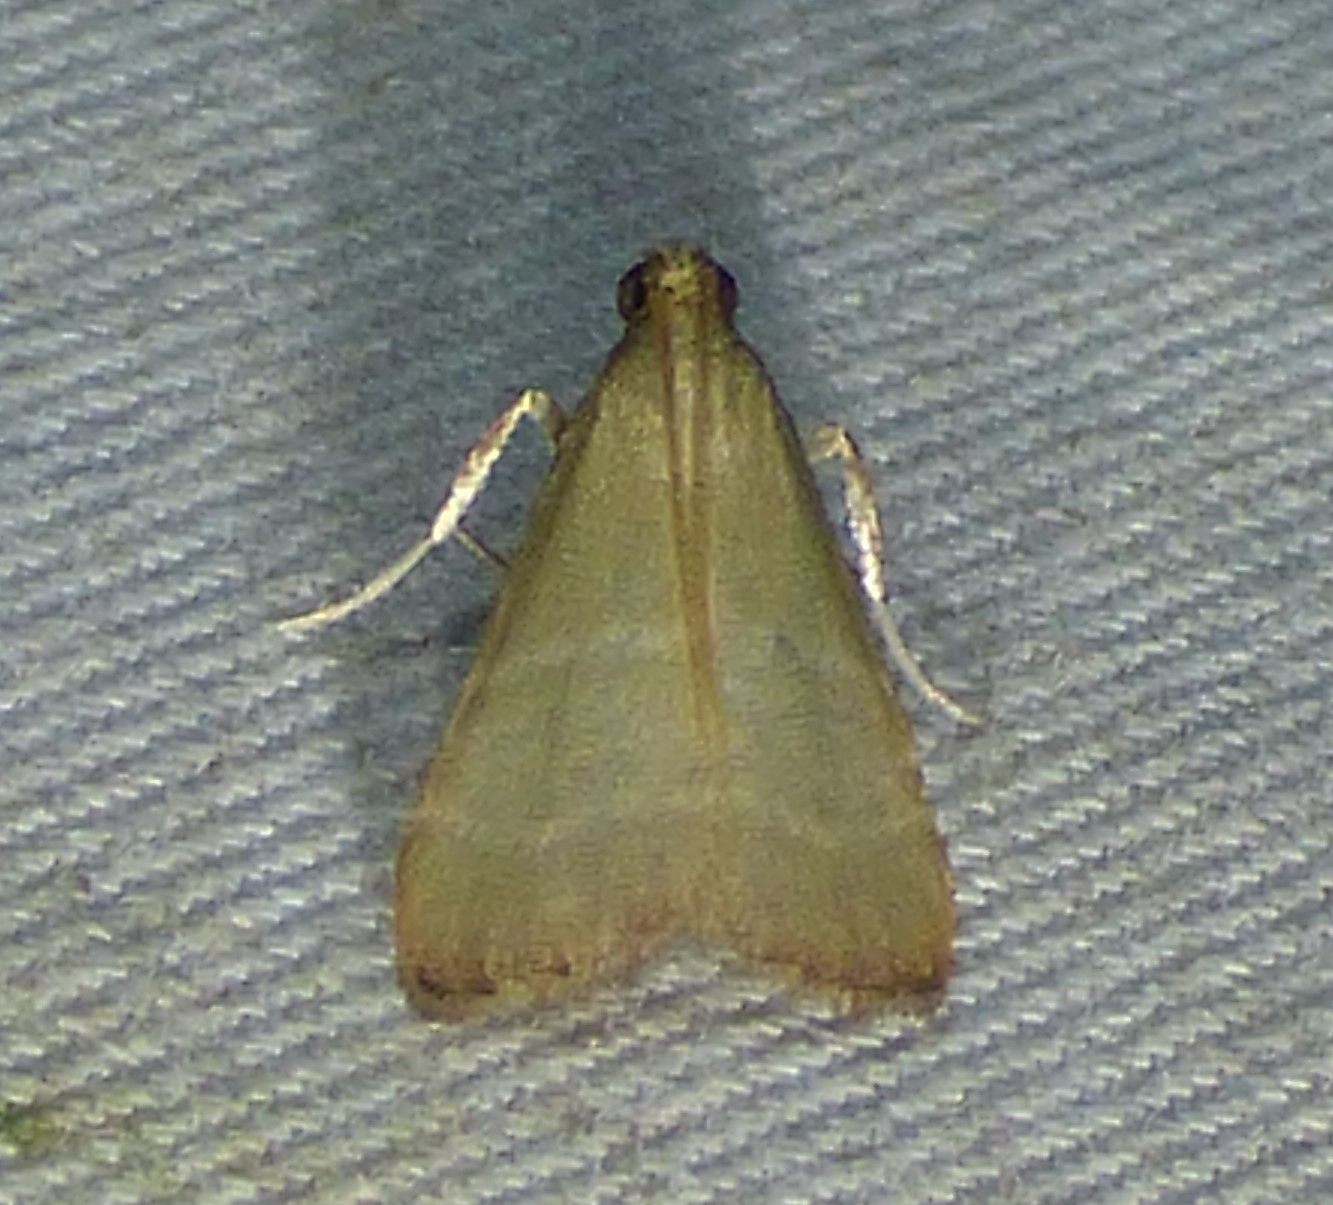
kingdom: Animalia
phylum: Arthropoda
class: Insecta
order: Lepidoptera
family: Pyralidae
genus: Arta
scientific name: Arta olivalis
